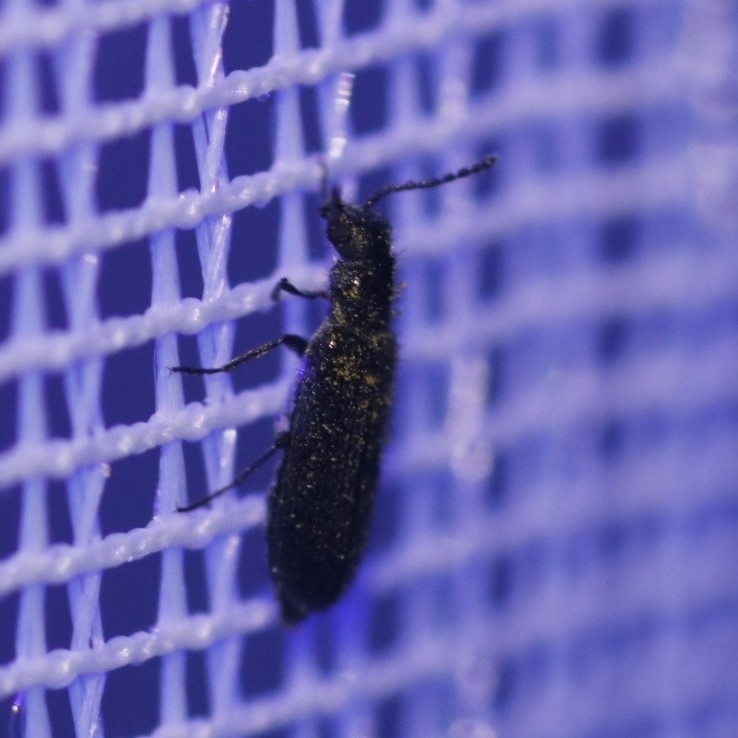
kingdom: Animalia
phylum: Arthropoda
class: Insecta
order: Coleoptera
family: Melyridae
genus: Dasytes
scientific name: Dasytes plumbeus
